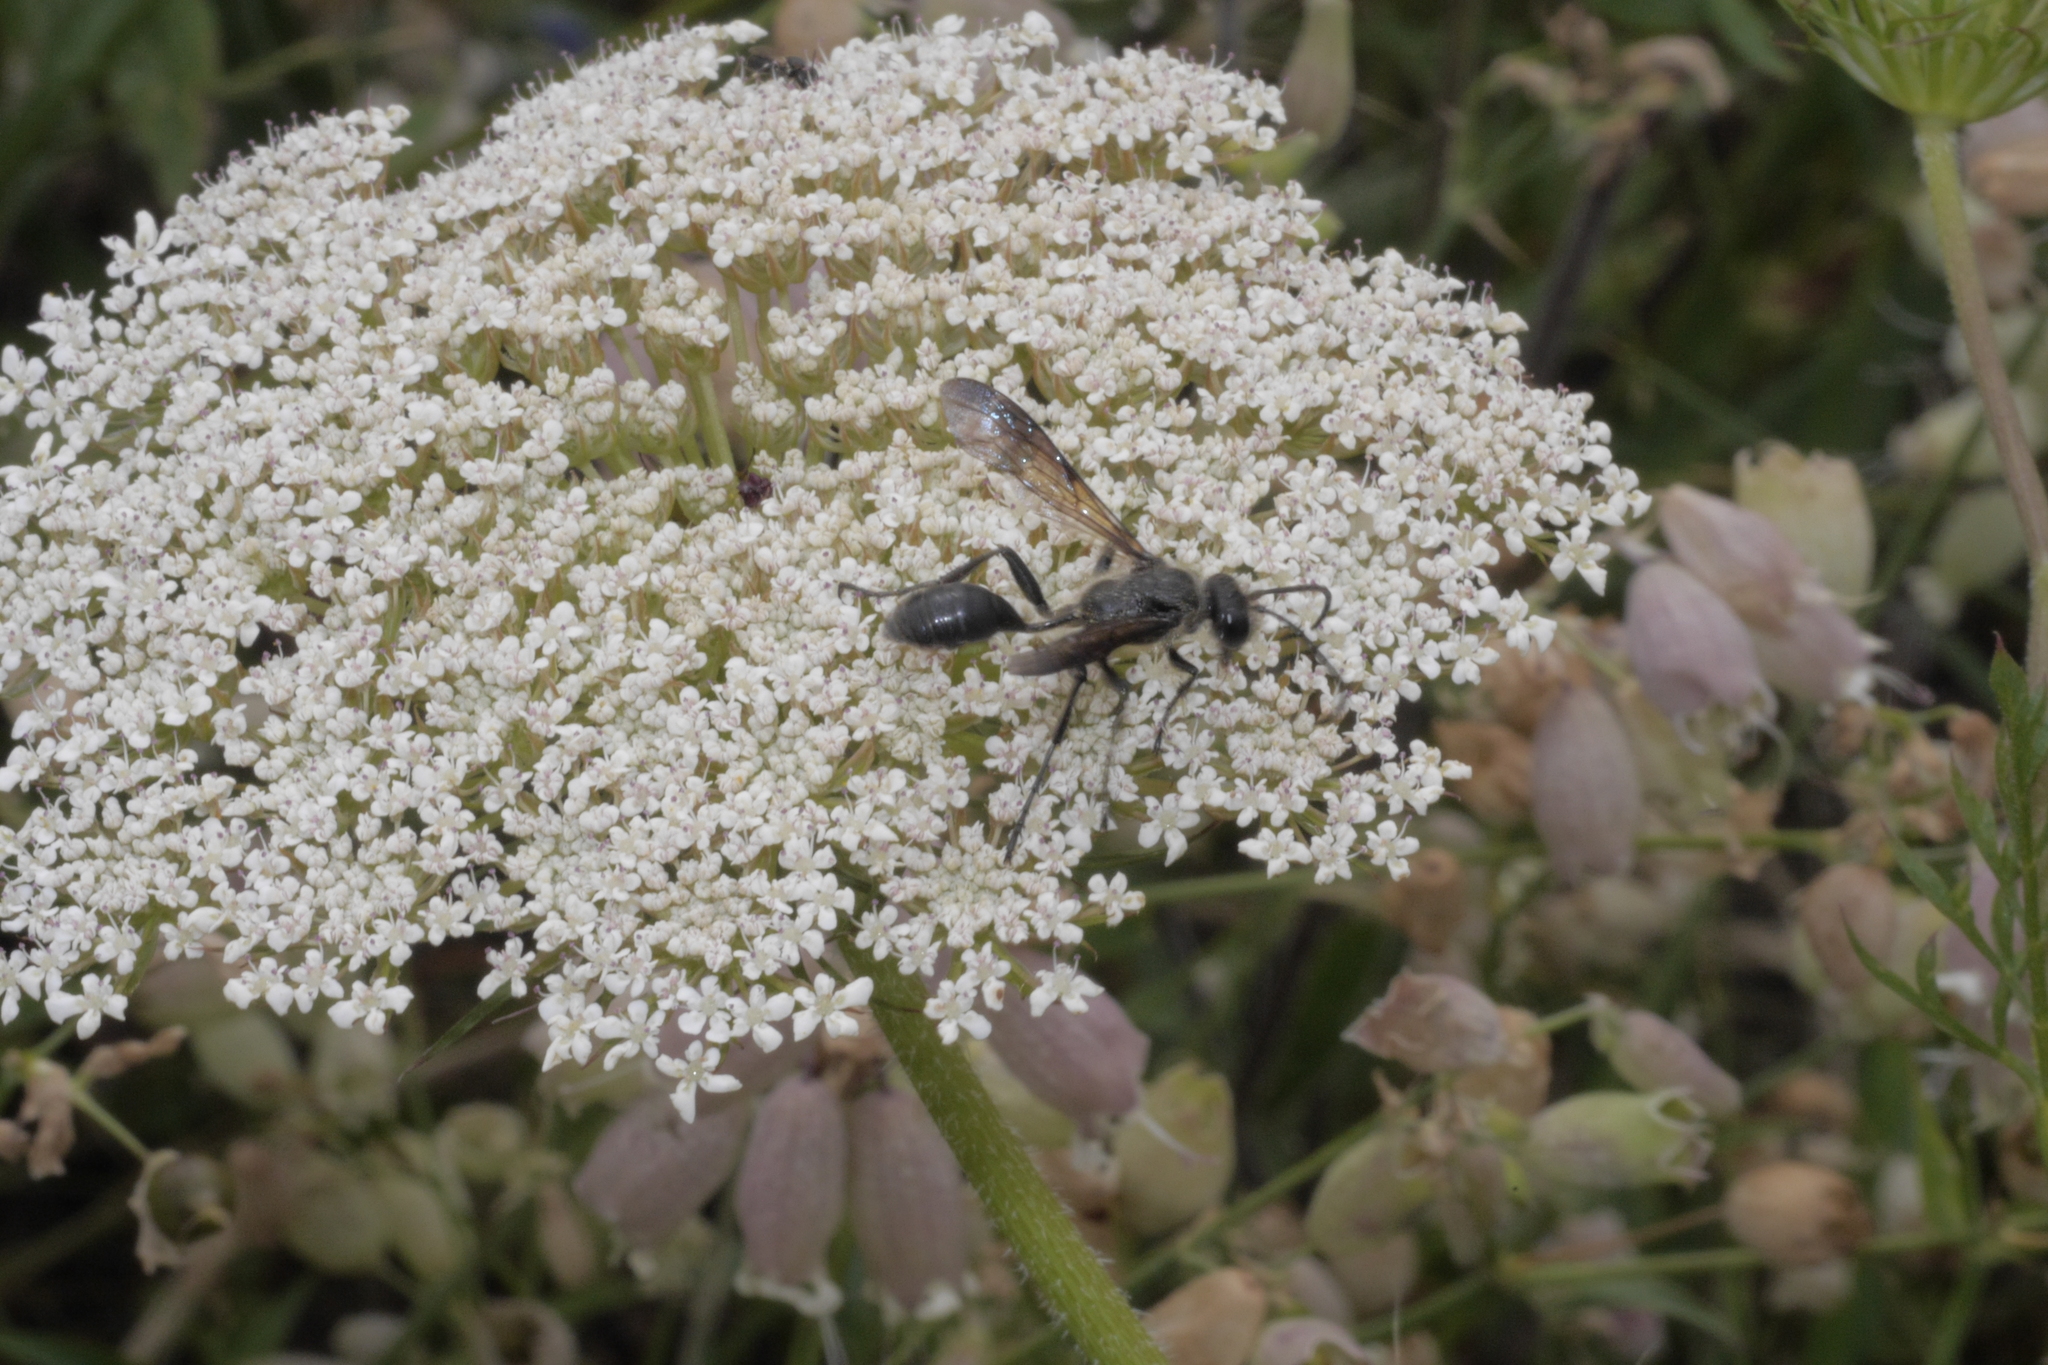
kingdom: Animalia
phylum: Arthropoda
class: Insecta
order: Hymenoptera
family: Sphecidae
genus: Isodontia
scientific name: Isodontia mexicana
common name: Mud dauber
